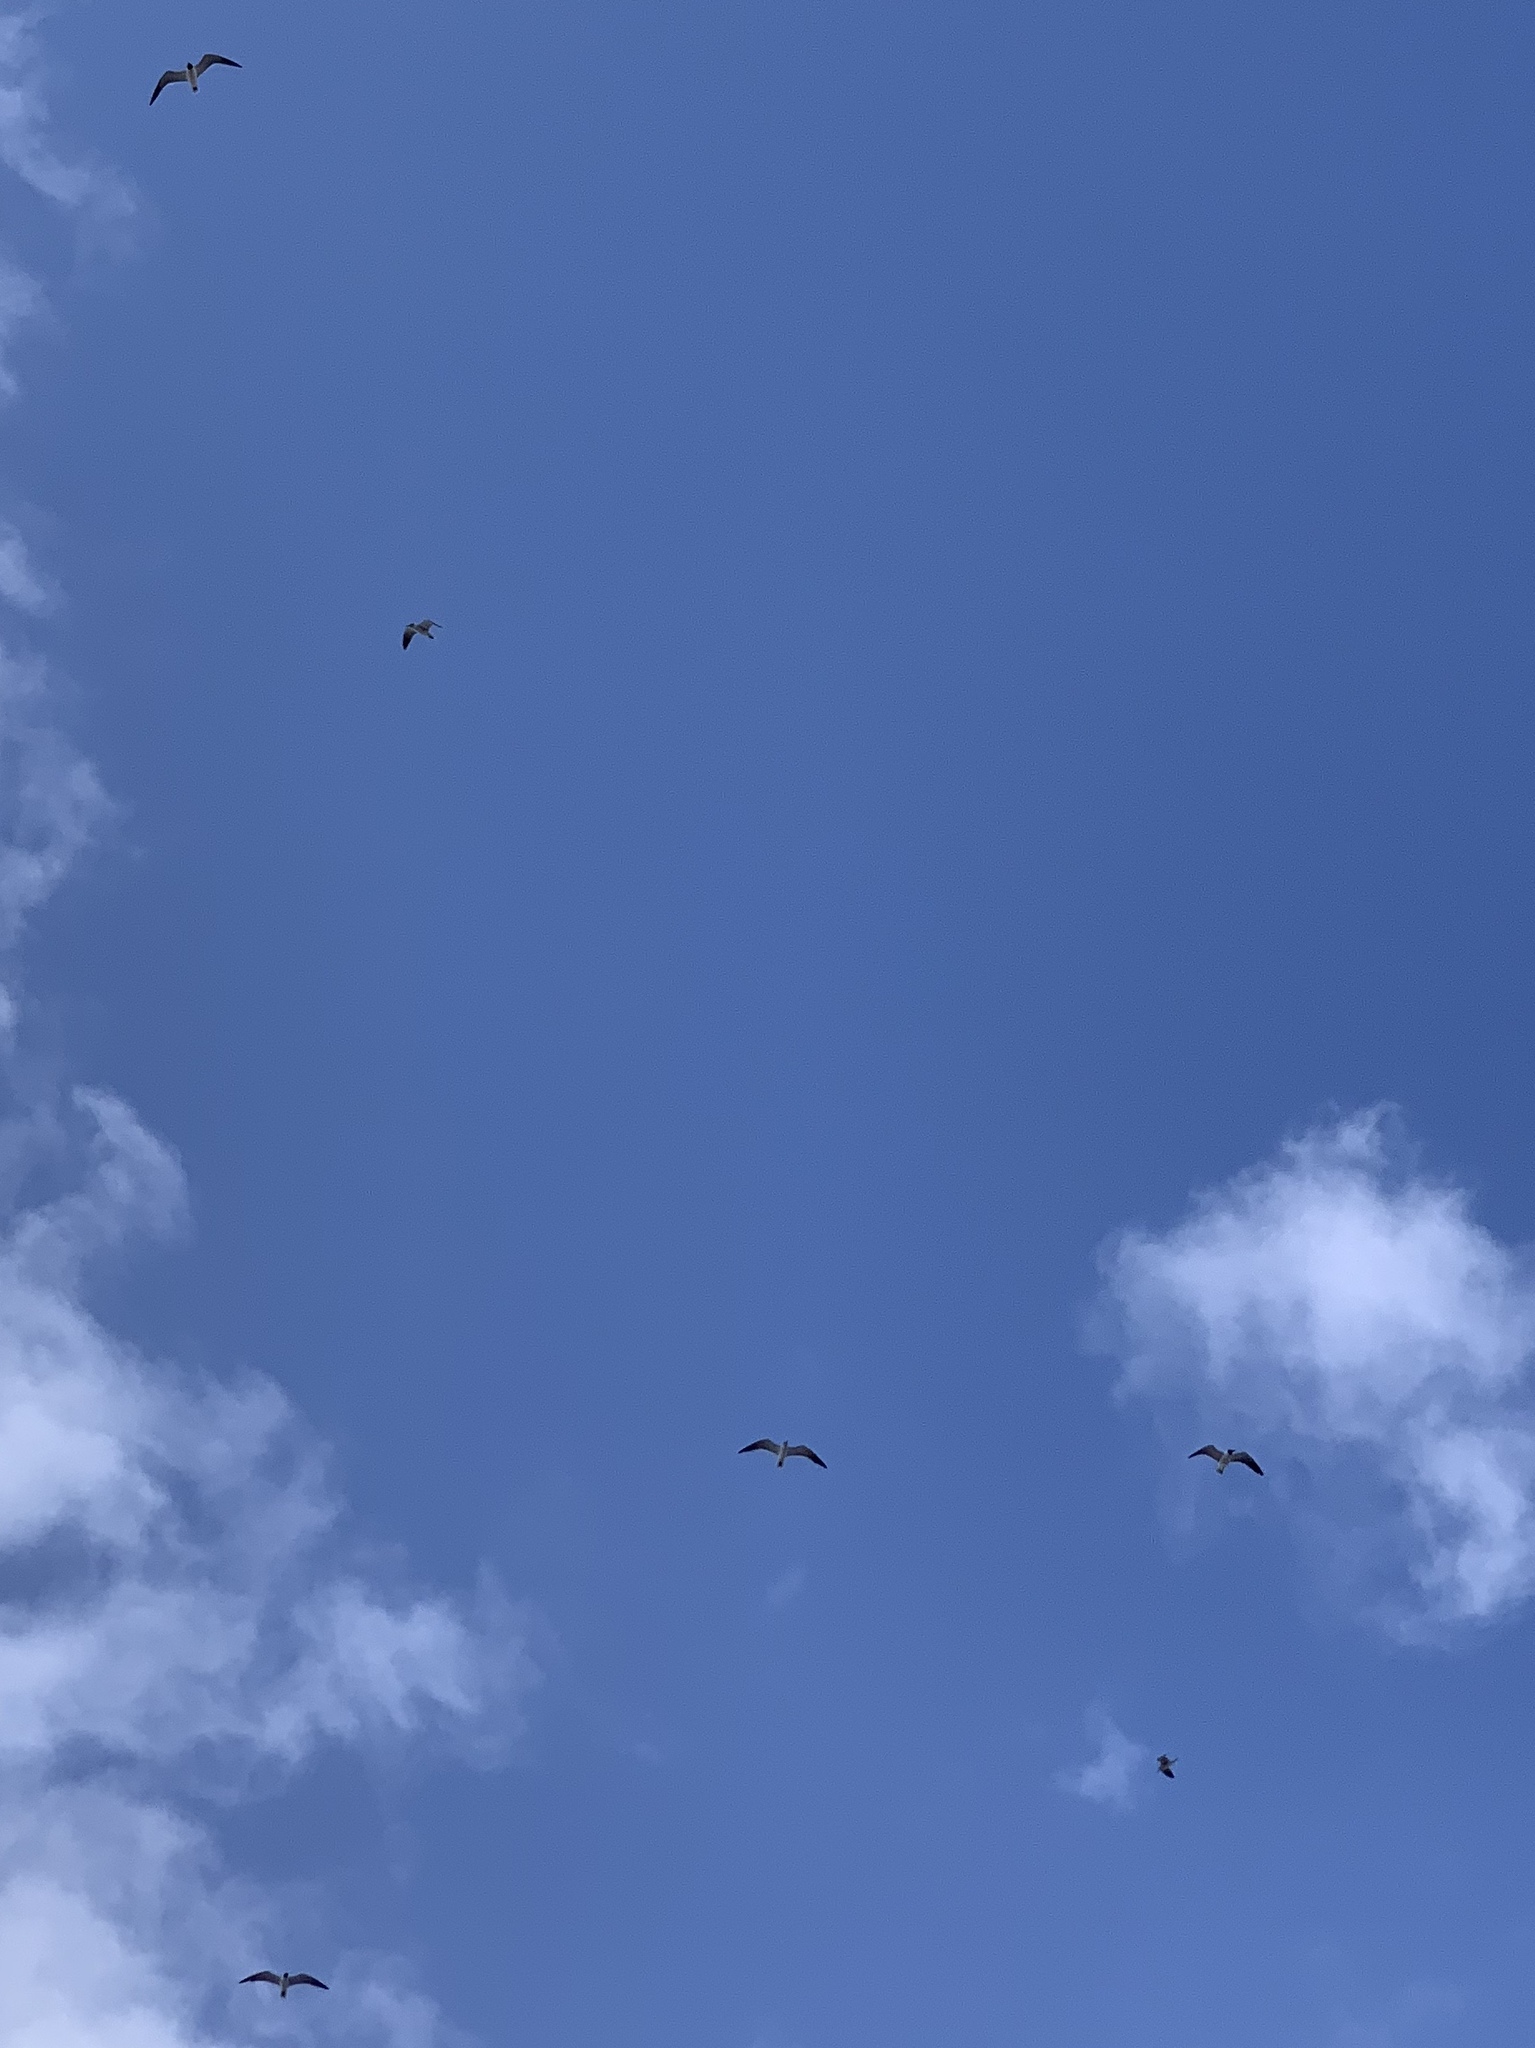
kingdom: Animalia
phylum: Chordata
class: Aves
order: Charadriiformes
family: Laridae
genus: Leucophaeus
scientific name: Leucophaeus atricilla
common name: Laughing gull
